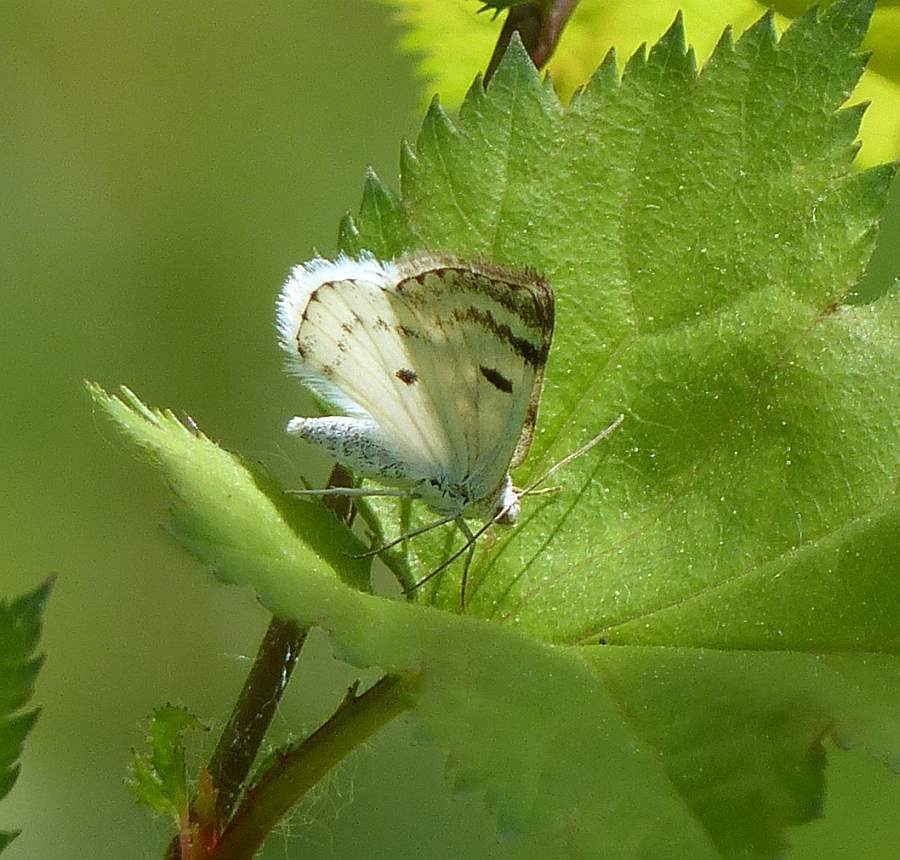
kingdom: Animalia
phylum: Arthropoda
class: Insecta
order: Lepidoptera
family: Geometridae
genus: Lomographa
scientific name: Lomographa semiclarata
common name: Bluish spring moth
